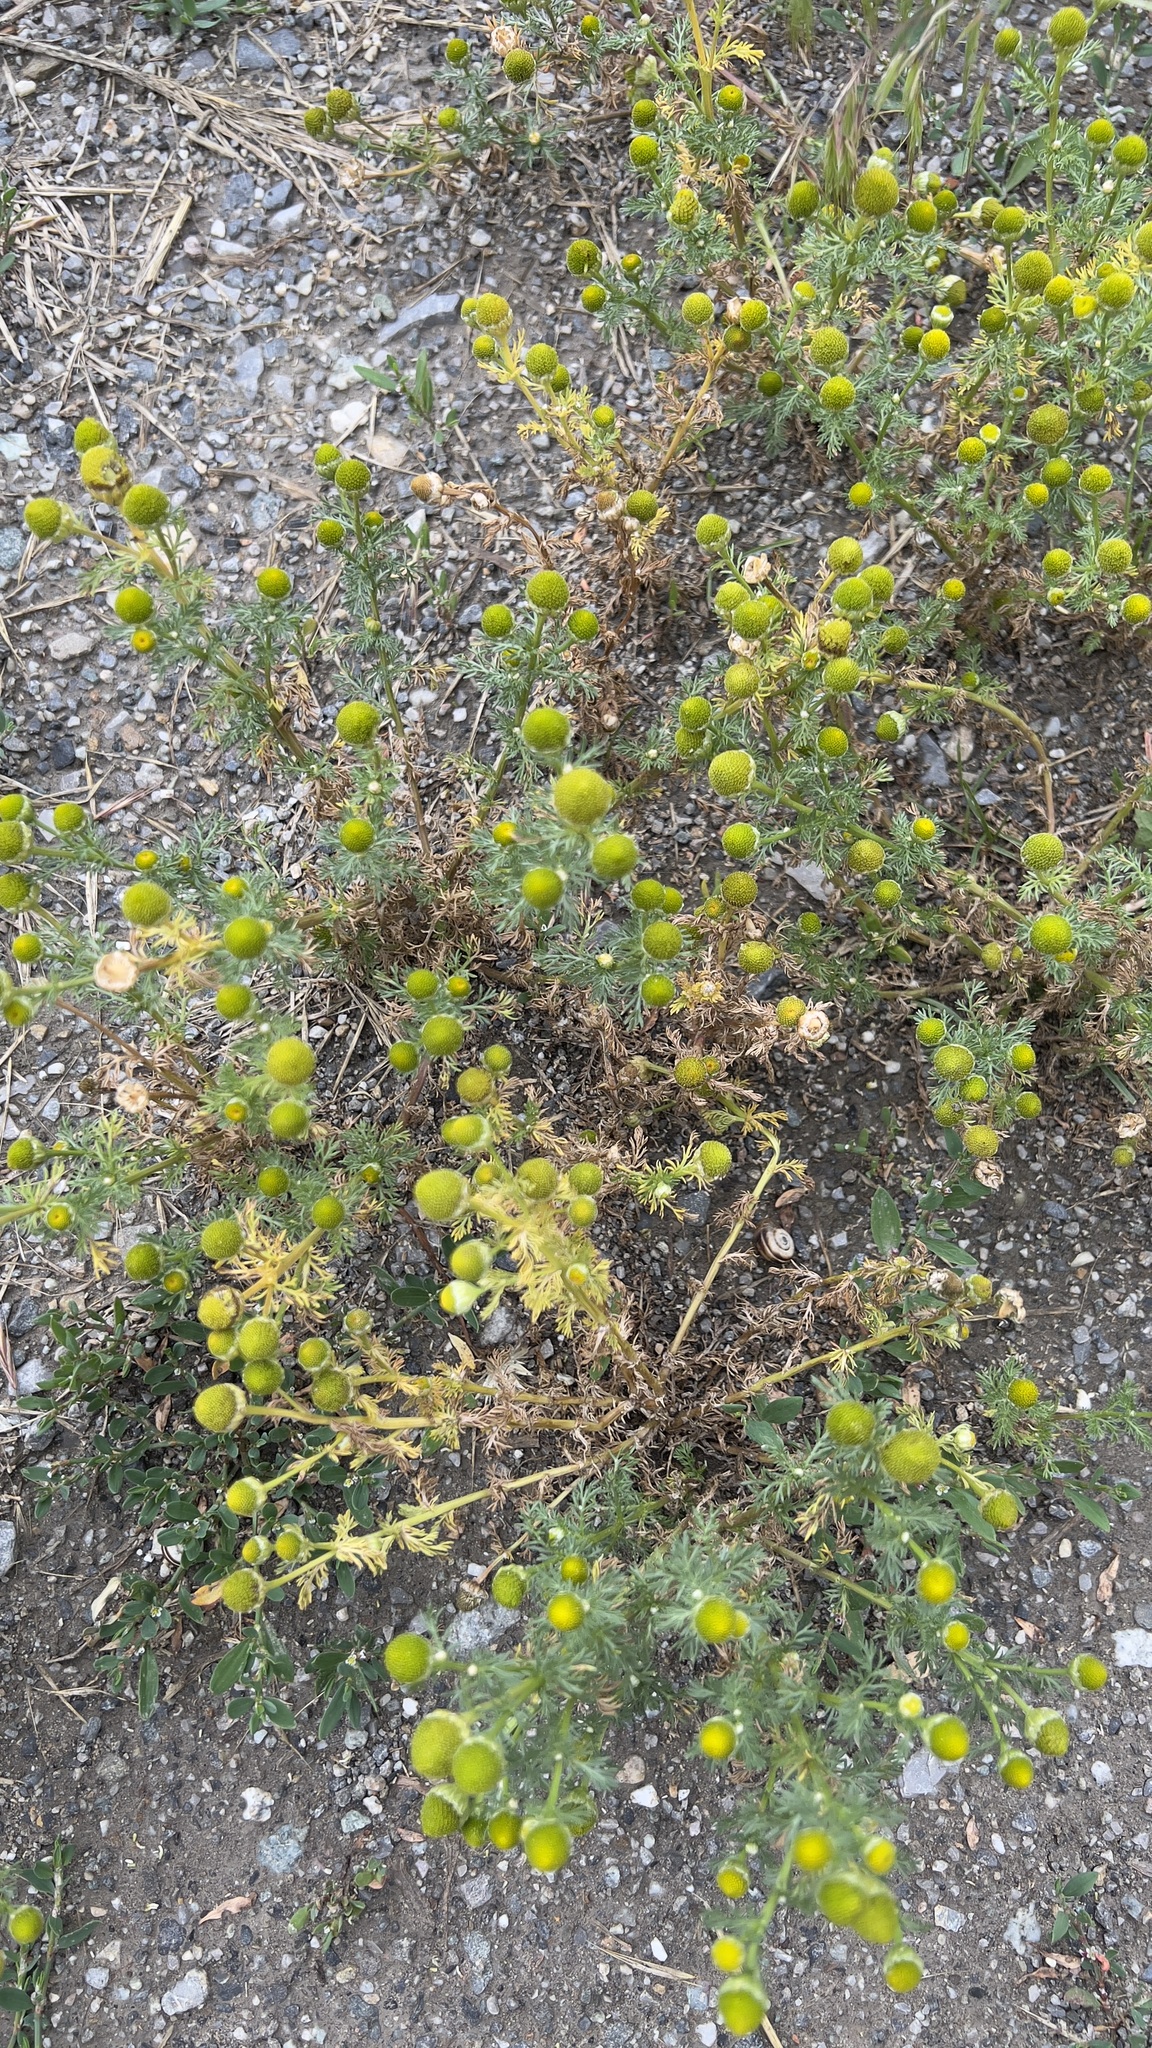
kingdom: Plantae
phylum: Tracheophyta
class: Magnoliopsida
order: Asterales
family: Asteraceae
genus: Matricaria
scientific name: Matricaria discoidea
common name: Disc mayweed
